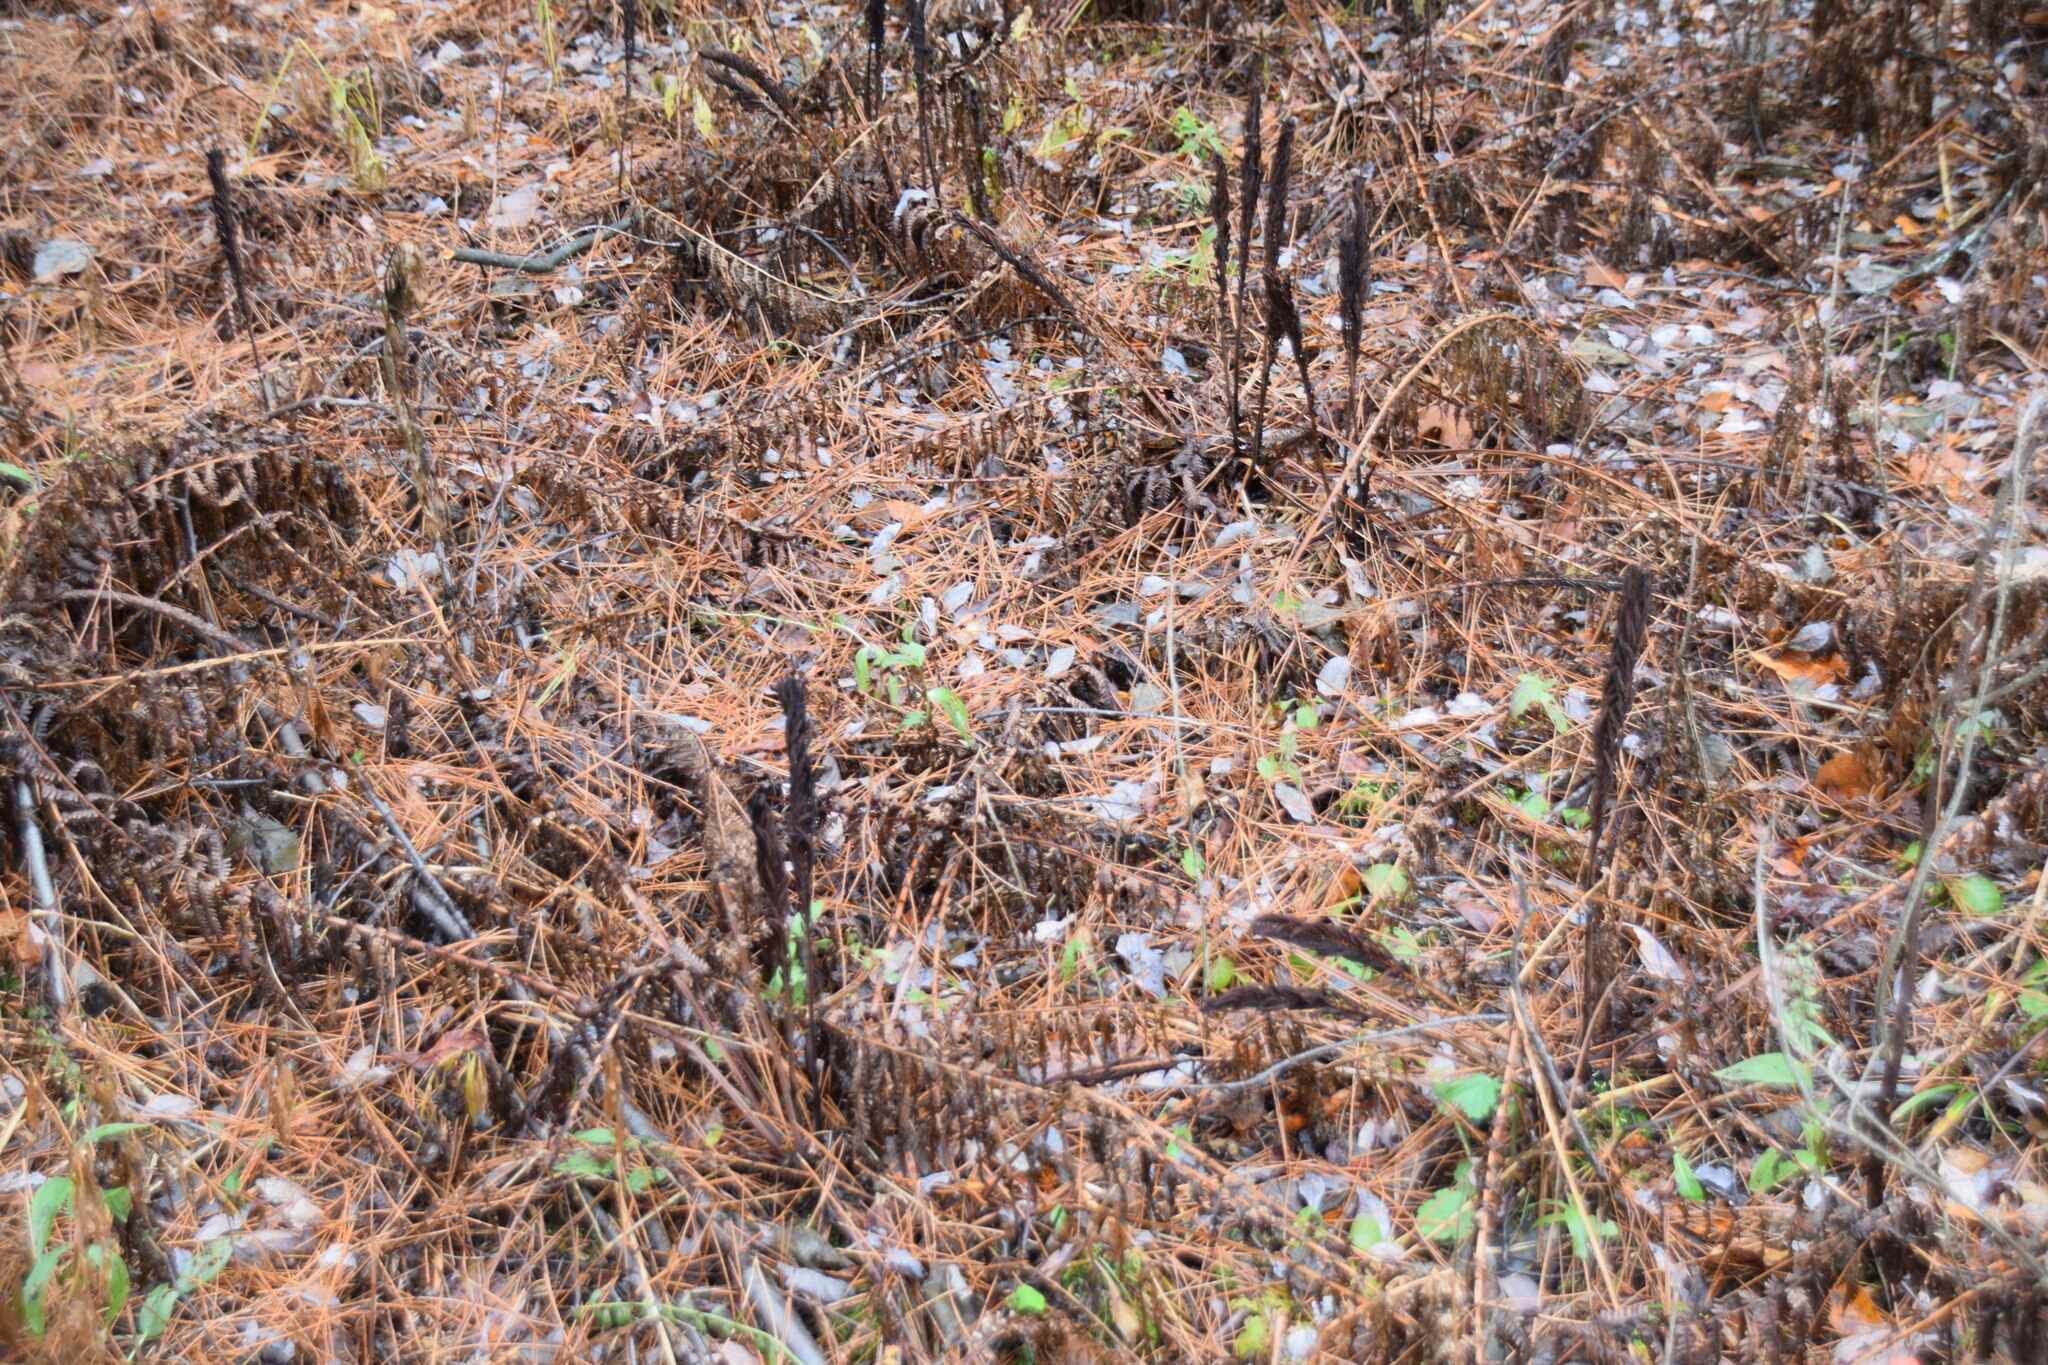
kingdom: Plantae
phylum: Tracheophyta
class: Polypodiopsida
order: Polypodiales
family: Onocleaceae
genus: Matteuccia
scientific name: Matteuccia struthiopteris
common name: Ostrich fern
